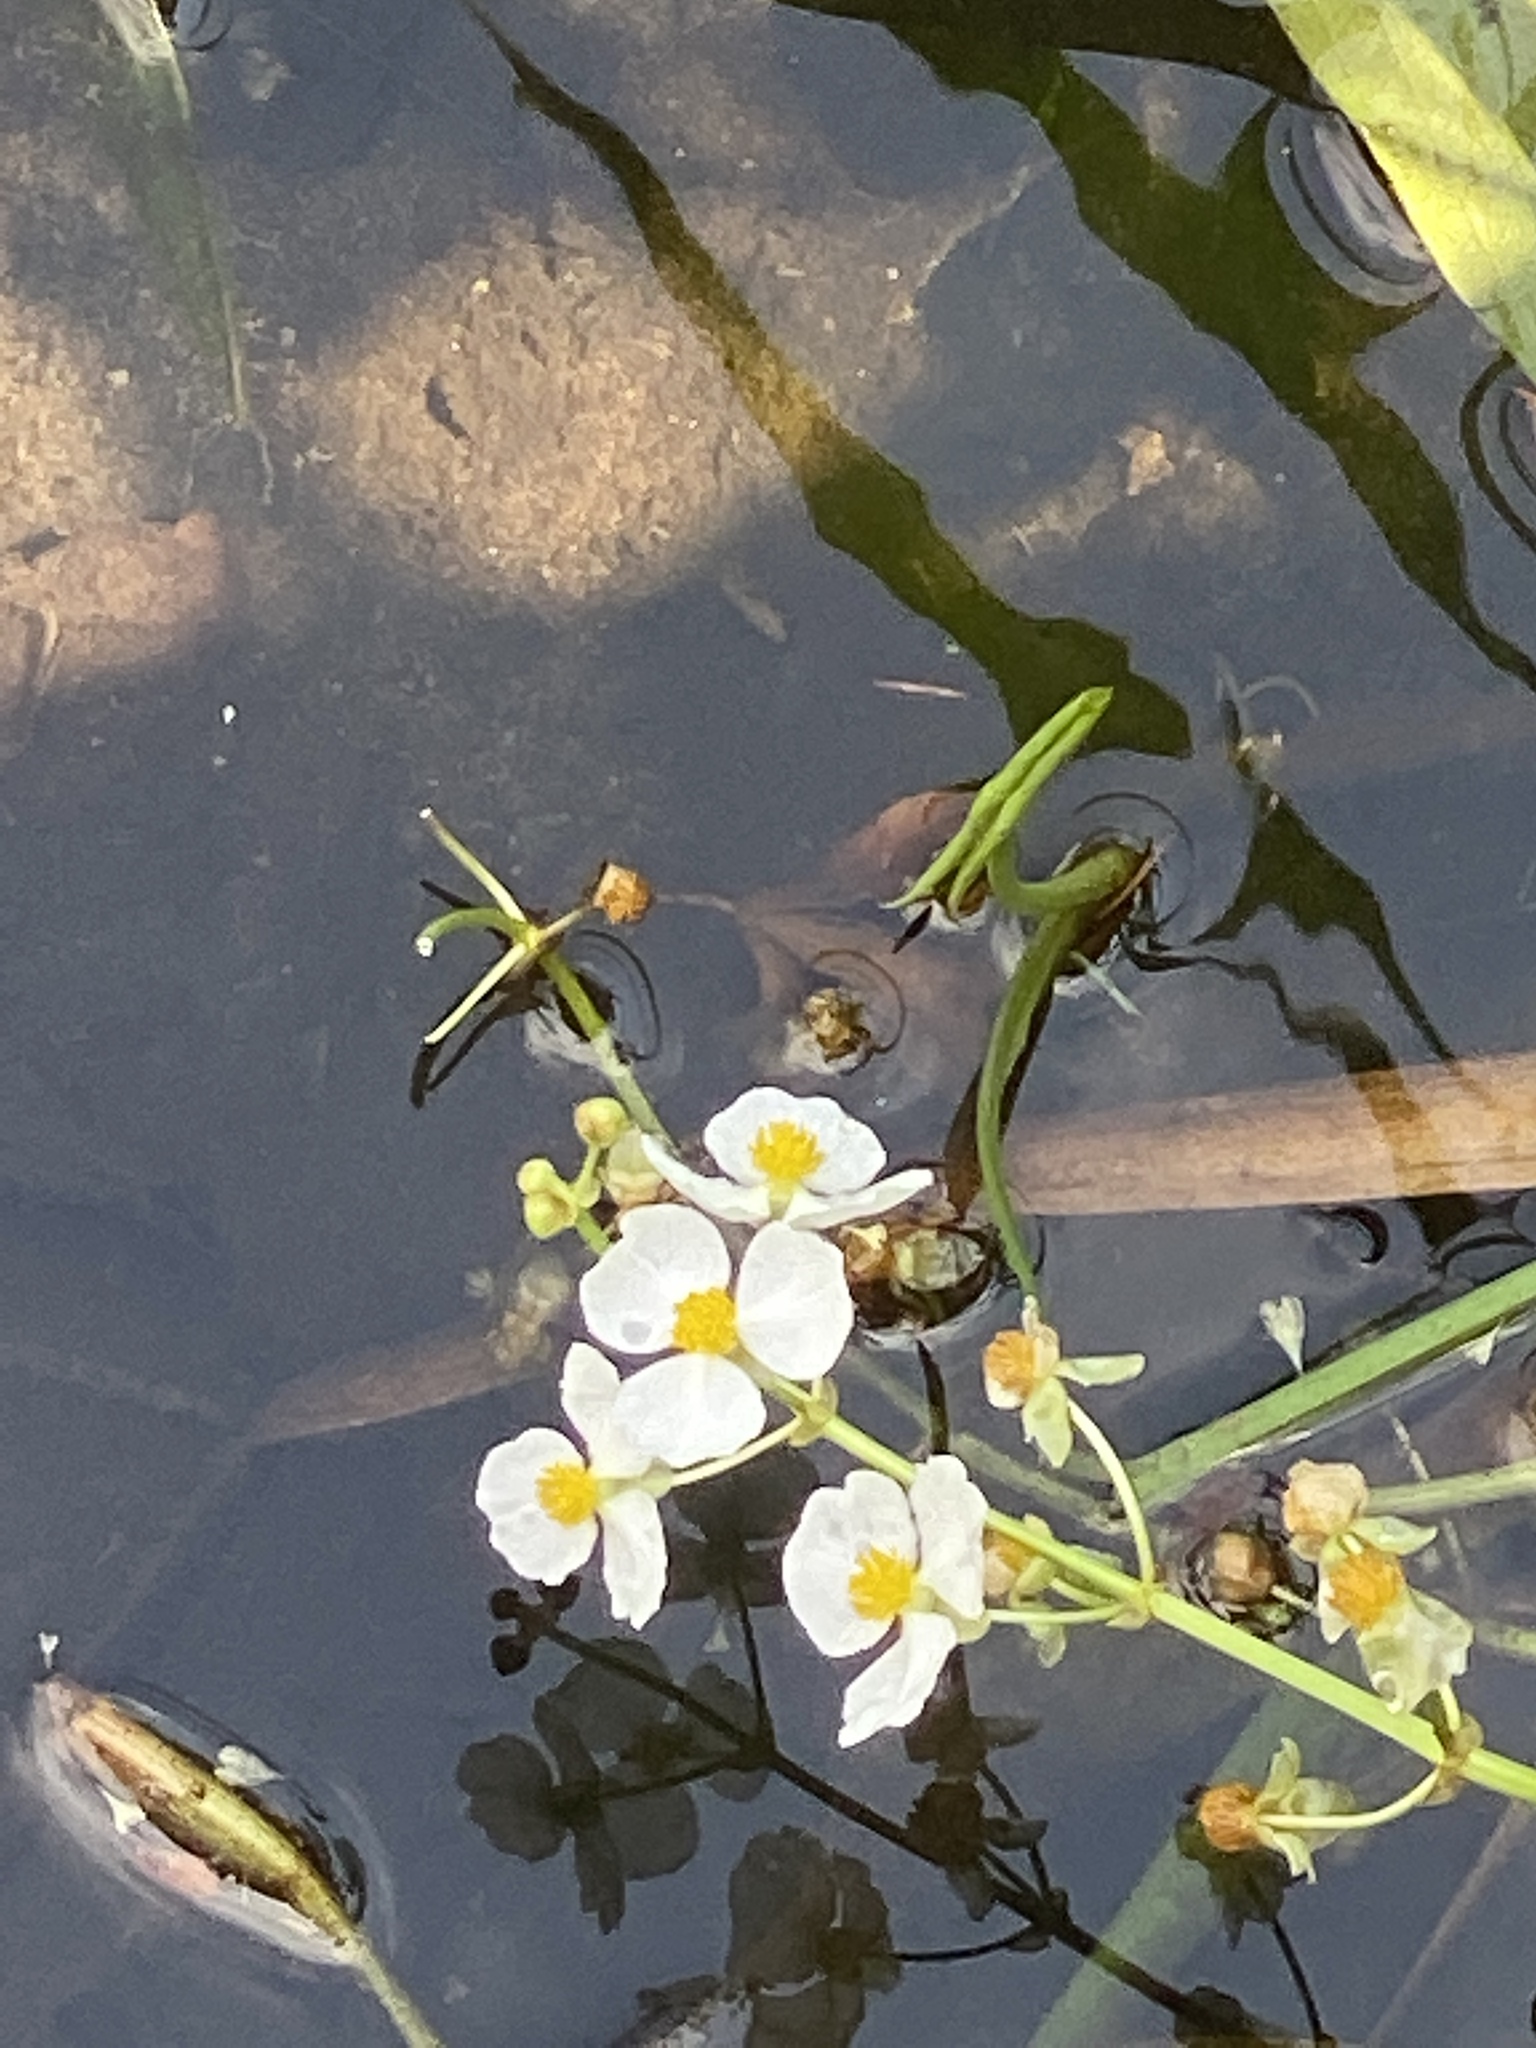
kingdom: Plantae
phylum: Tracheophyta
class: Liliopsida
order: Alismatales
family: Alismataceae
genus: Sagittaria
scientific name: Sagittaria latifolia
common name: Duck-potato
